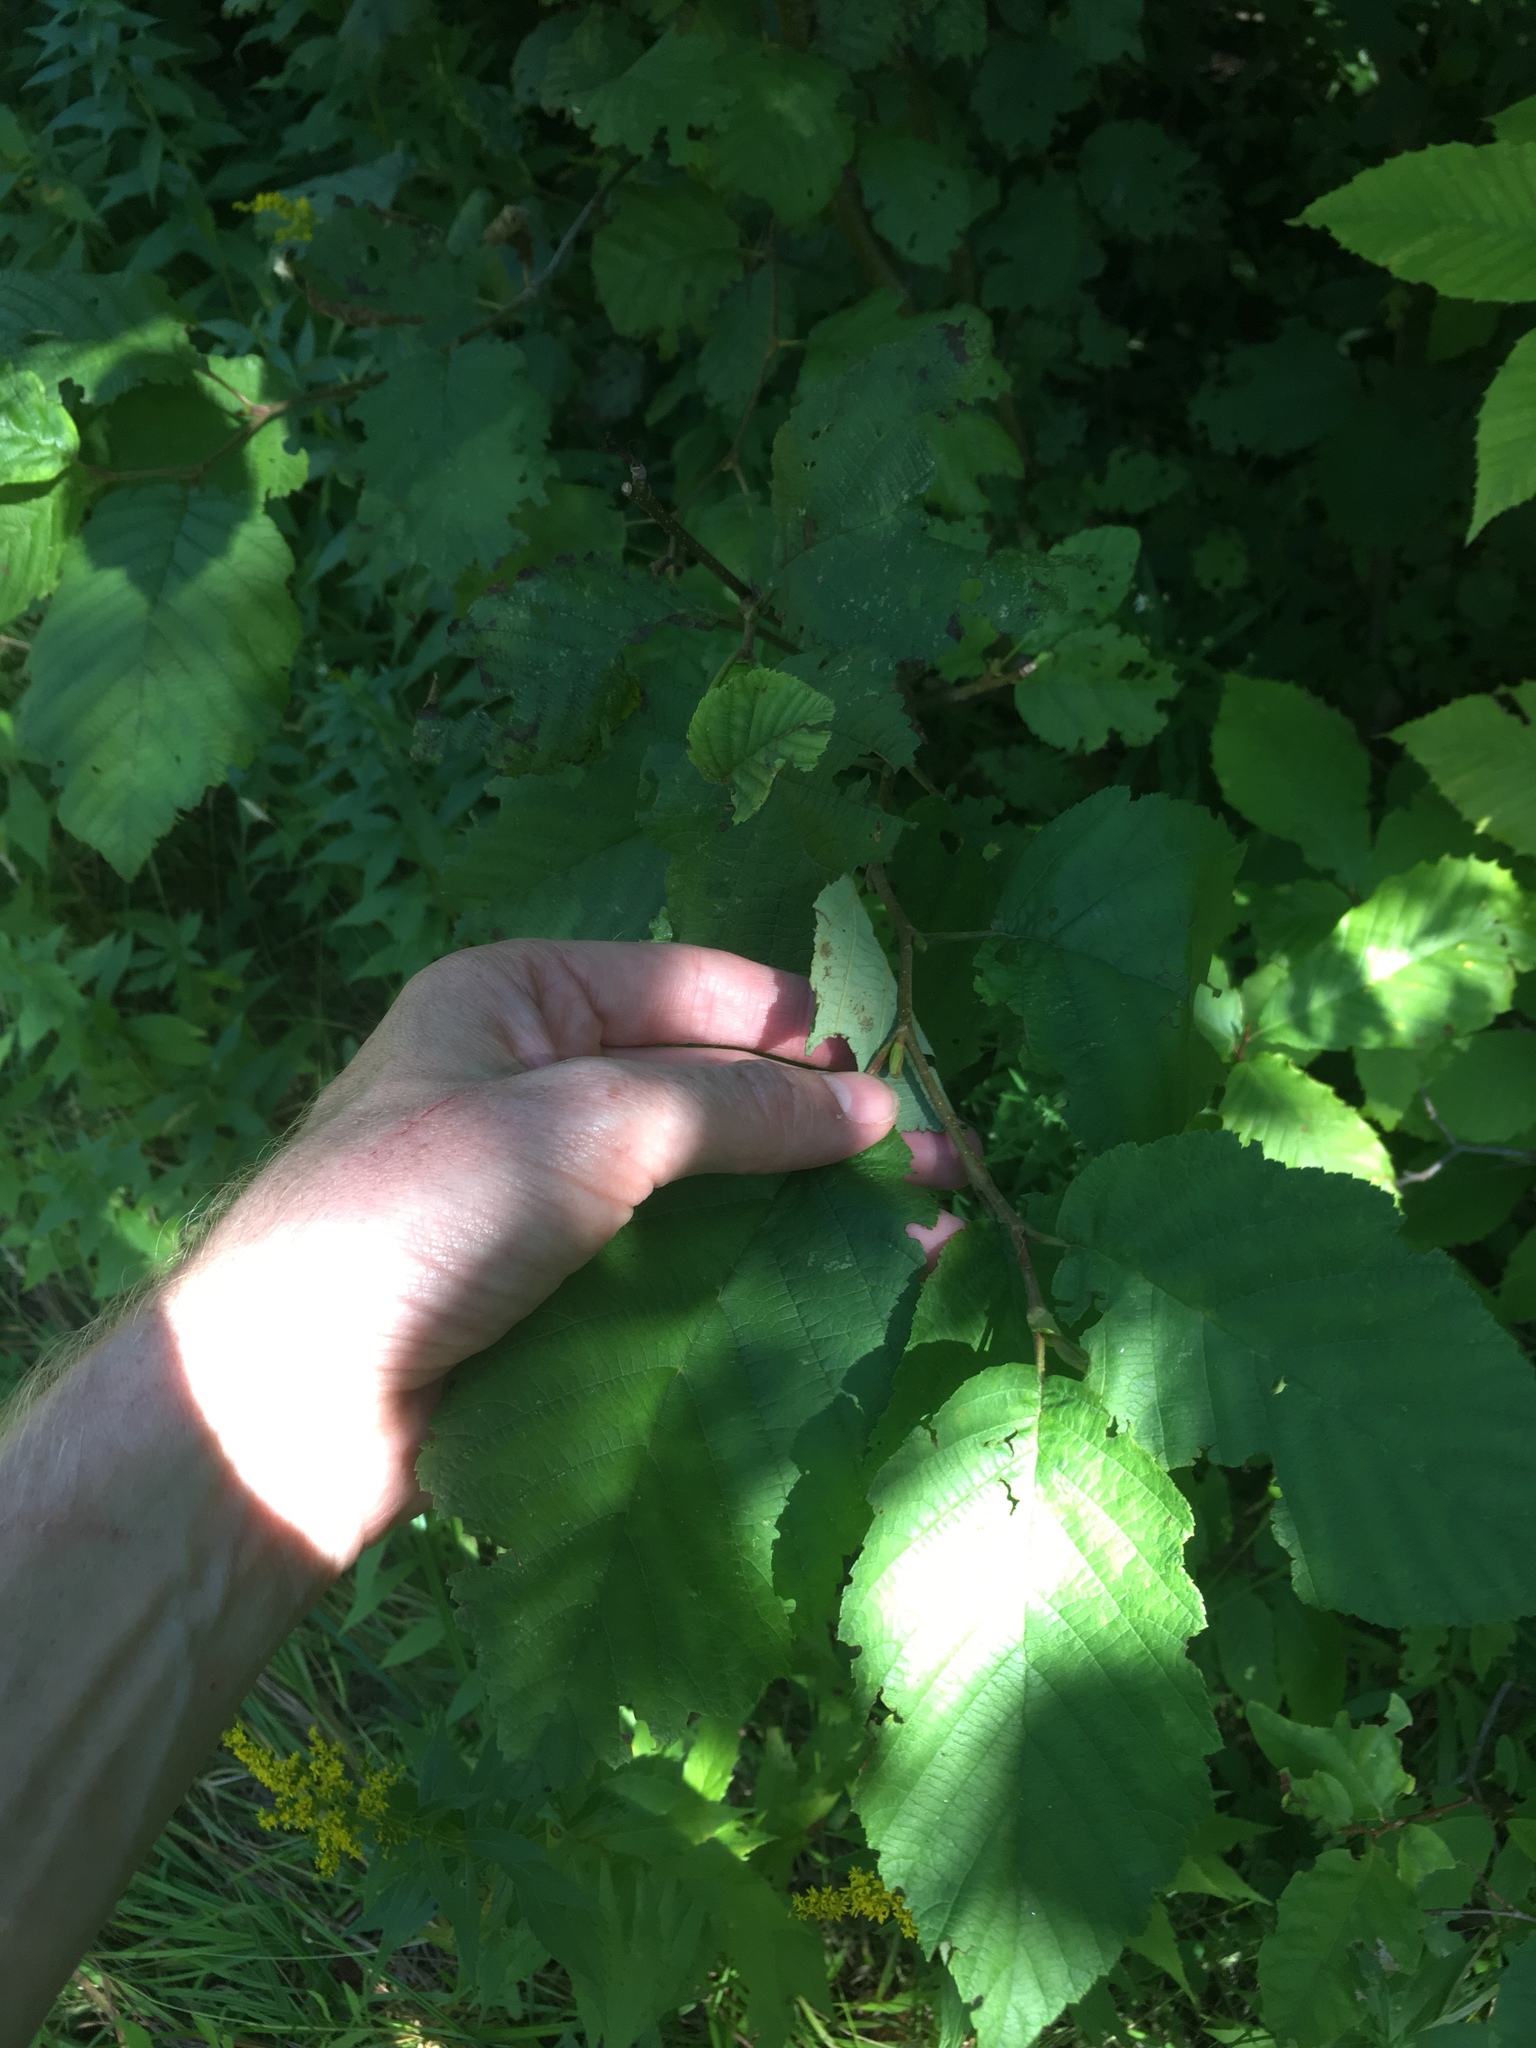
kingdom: Plantae
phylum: Tracheophyta
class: Magnoliopsida
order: Fagales
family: Betulaceae
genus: Alnus
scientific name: Alnus incana
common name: Grey alder
